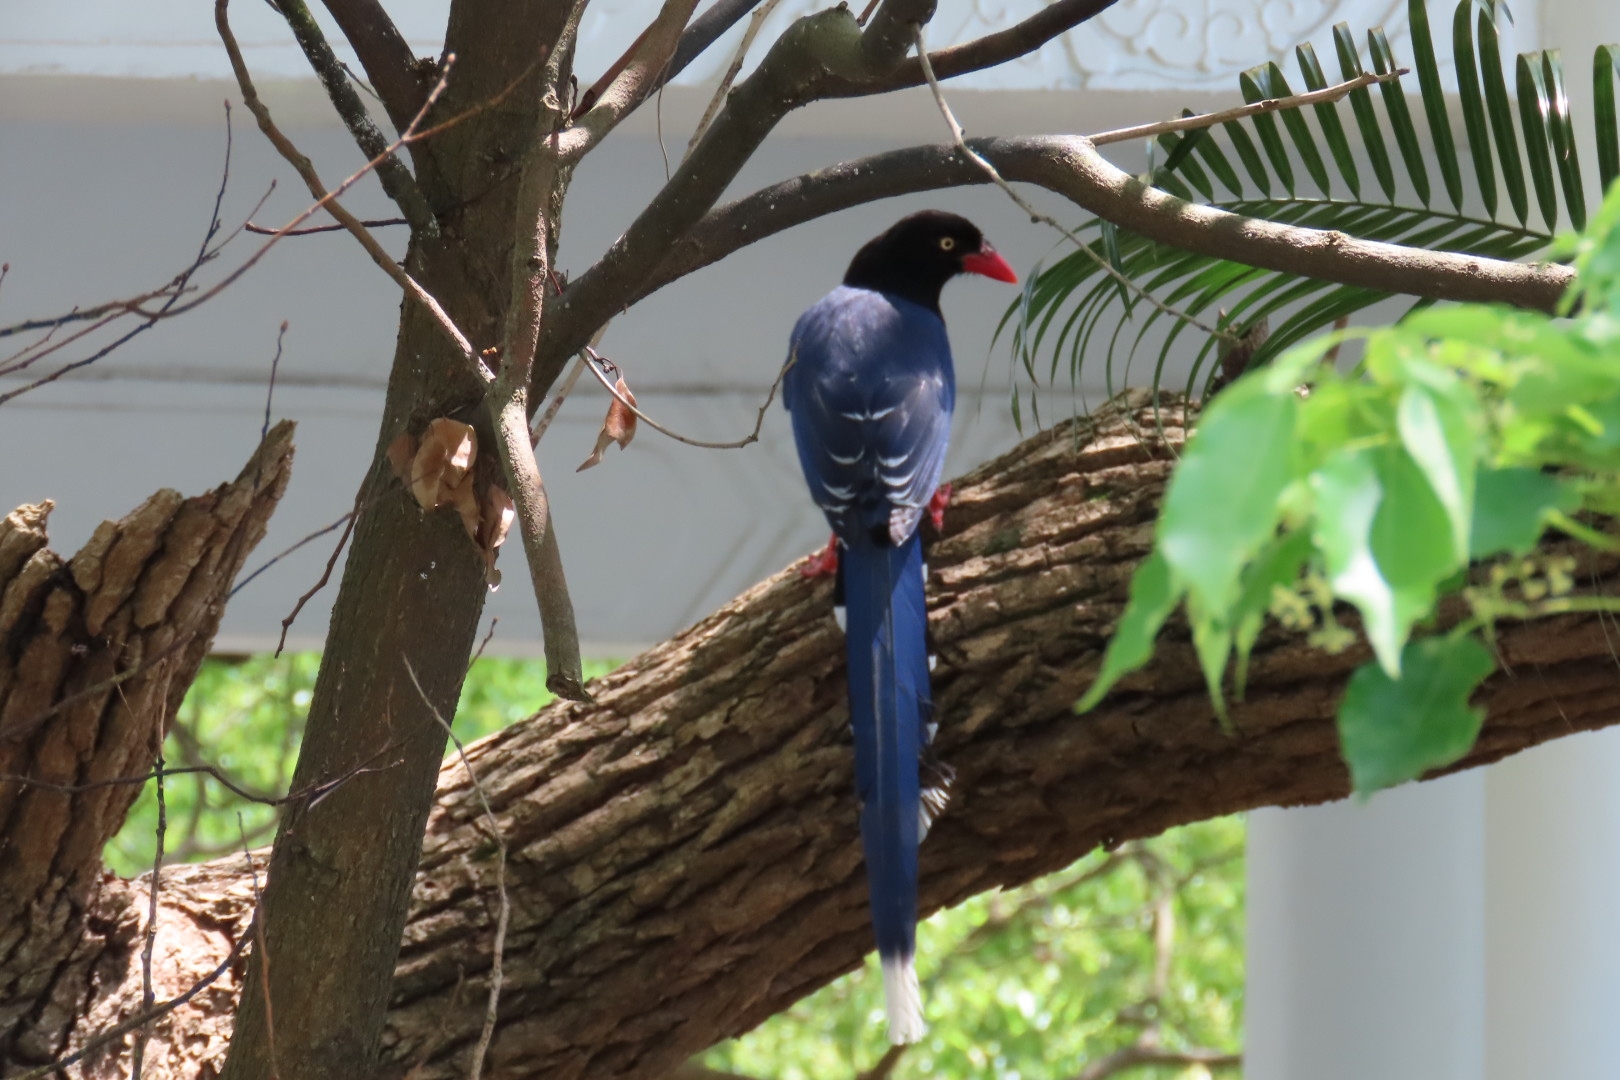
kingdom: Animalia
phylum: Chordata
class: Aves
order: Passeriformes
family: Corvidae
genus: Urocissa
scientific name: Urocissa caerulea
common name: Taiwan blue magpie
